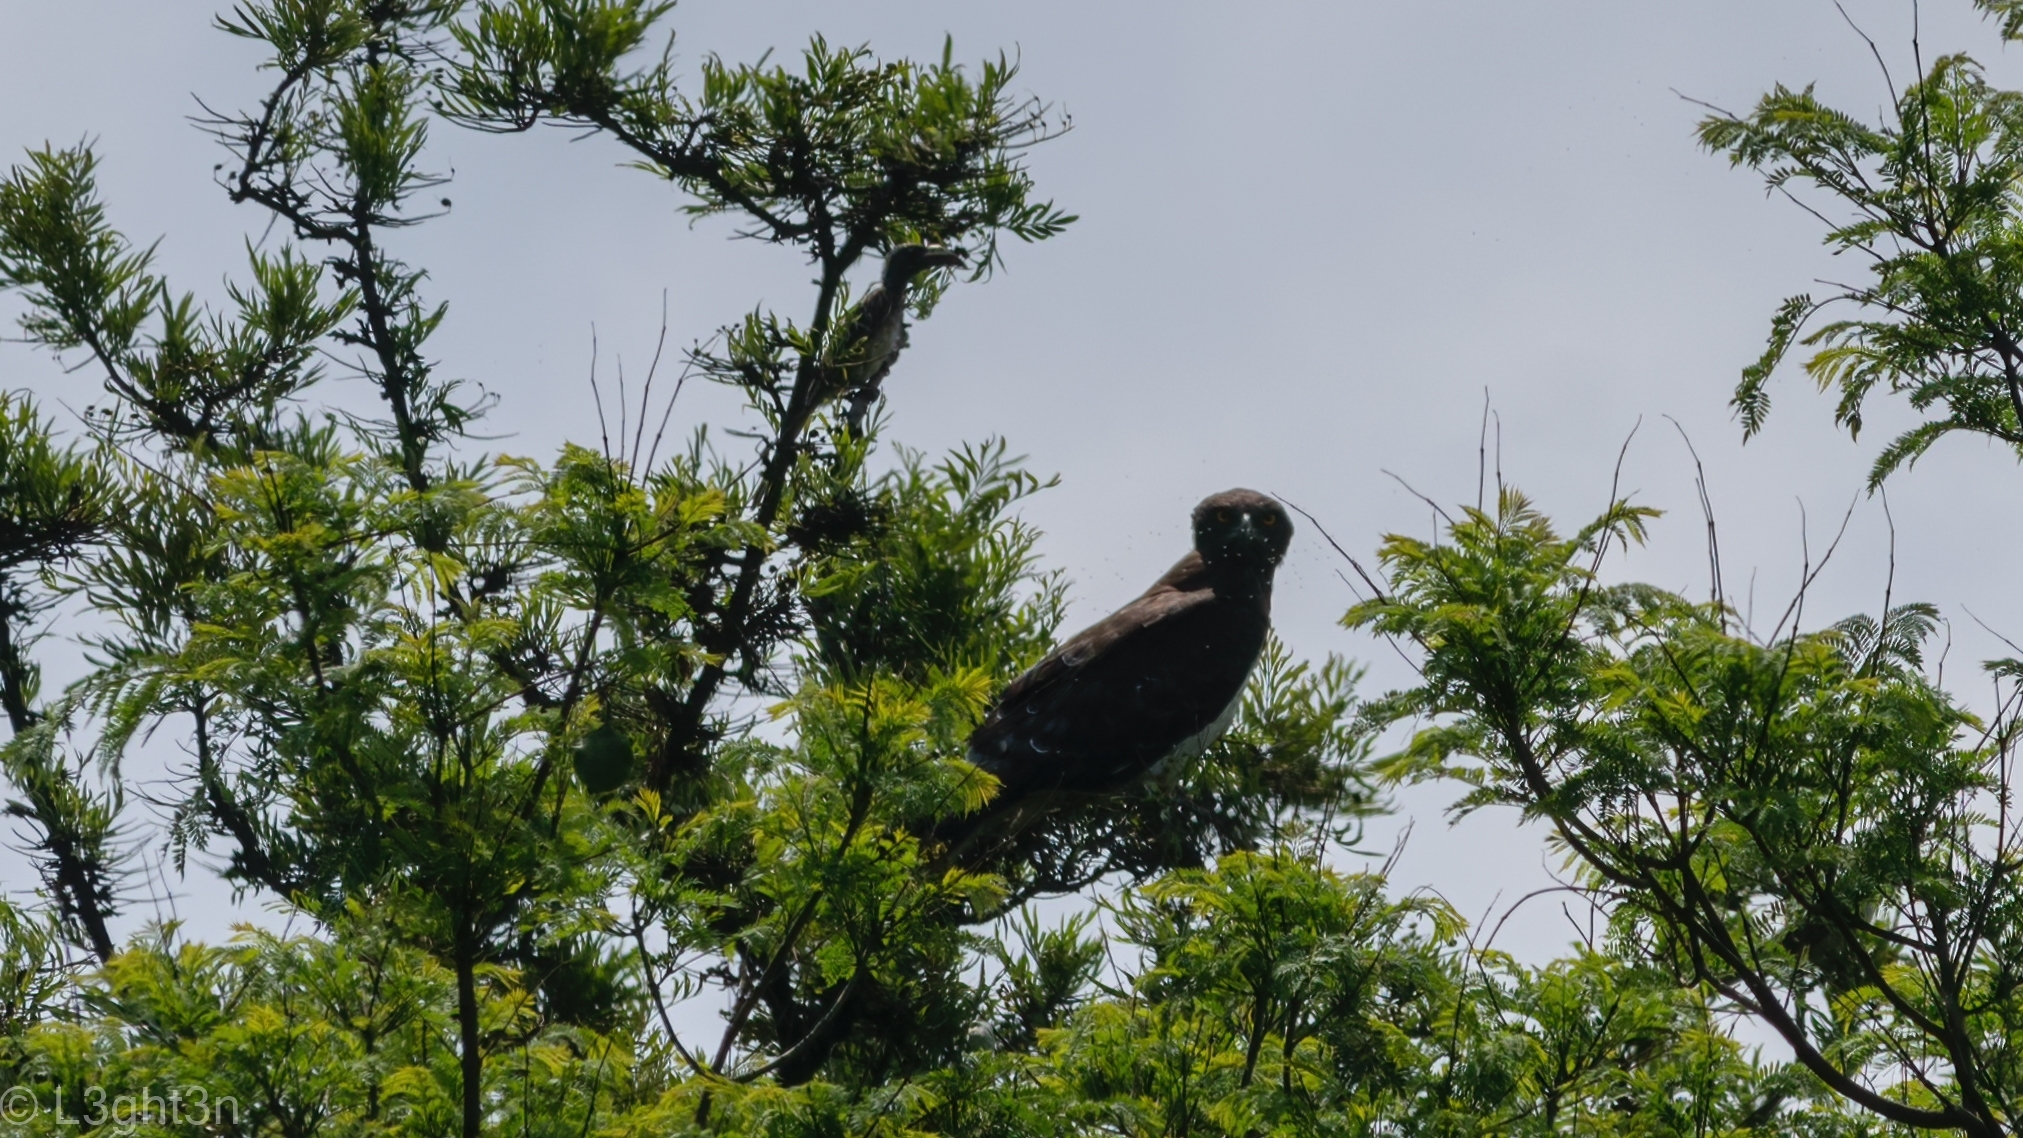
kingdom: Animalia
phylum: Chordata
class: Aves
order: Accipitriformes
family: Accipitridae
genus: Circaetus
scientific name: Circaetus pectoralis
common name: Black-chested snake eagle
